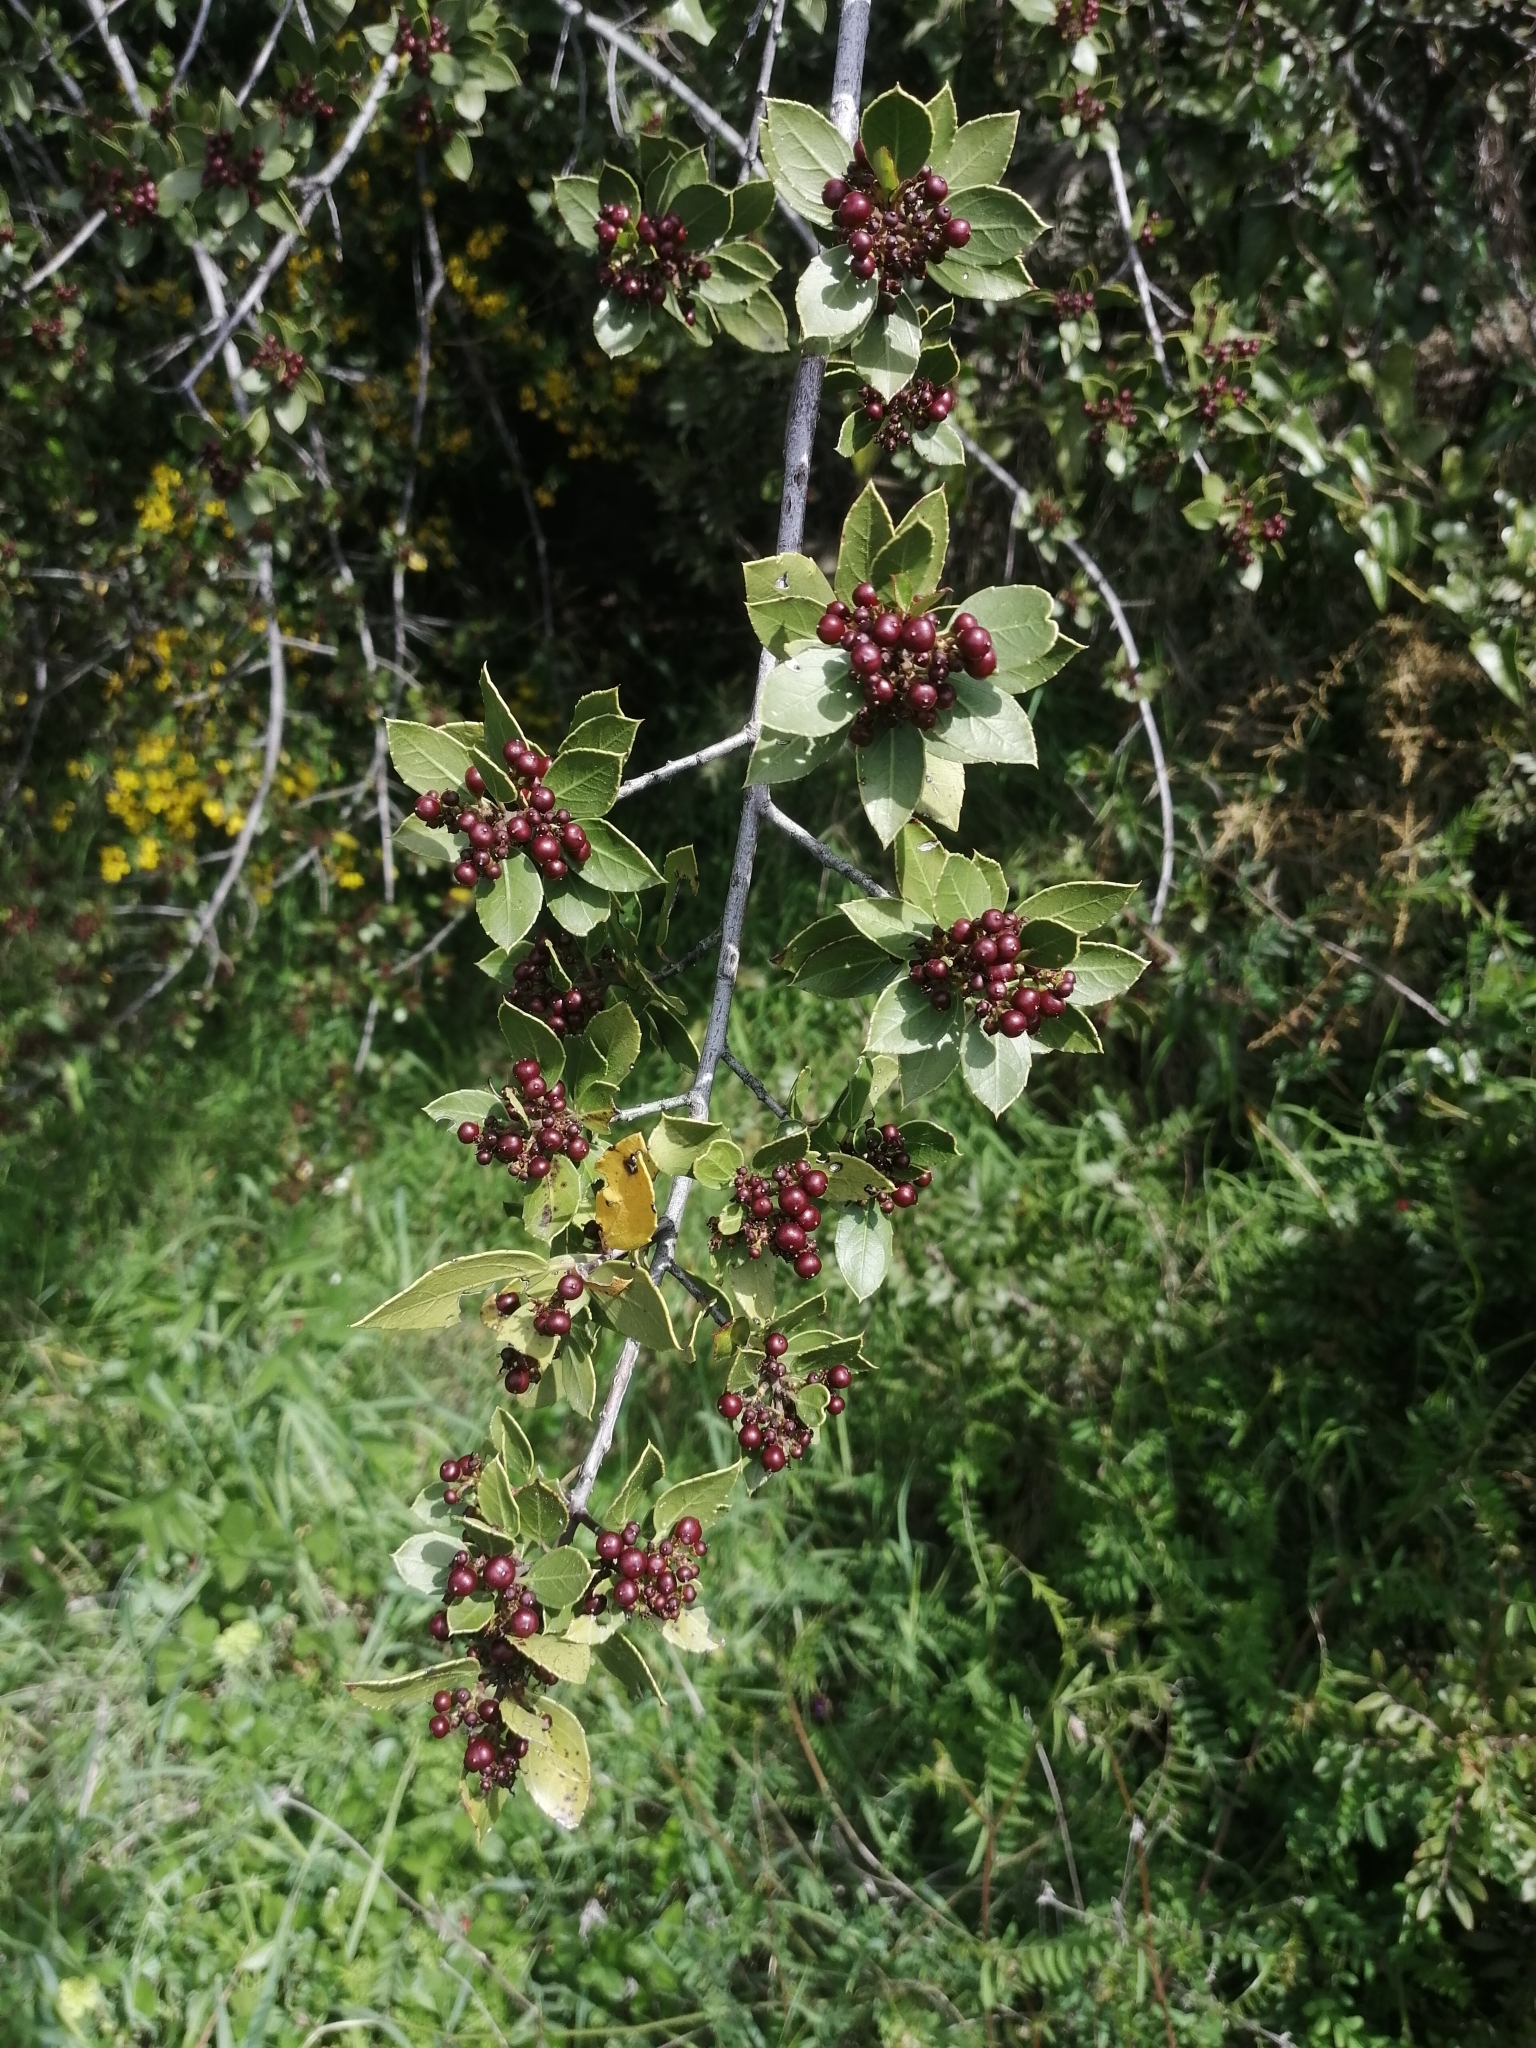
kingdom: Plantae
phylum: Tracheophyta
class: Magnoliopsida
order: Rosales
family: Rhamnaceae
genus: Rhamnus
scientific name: Rhamnus alaternus
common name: Mediterranean buckthorn
